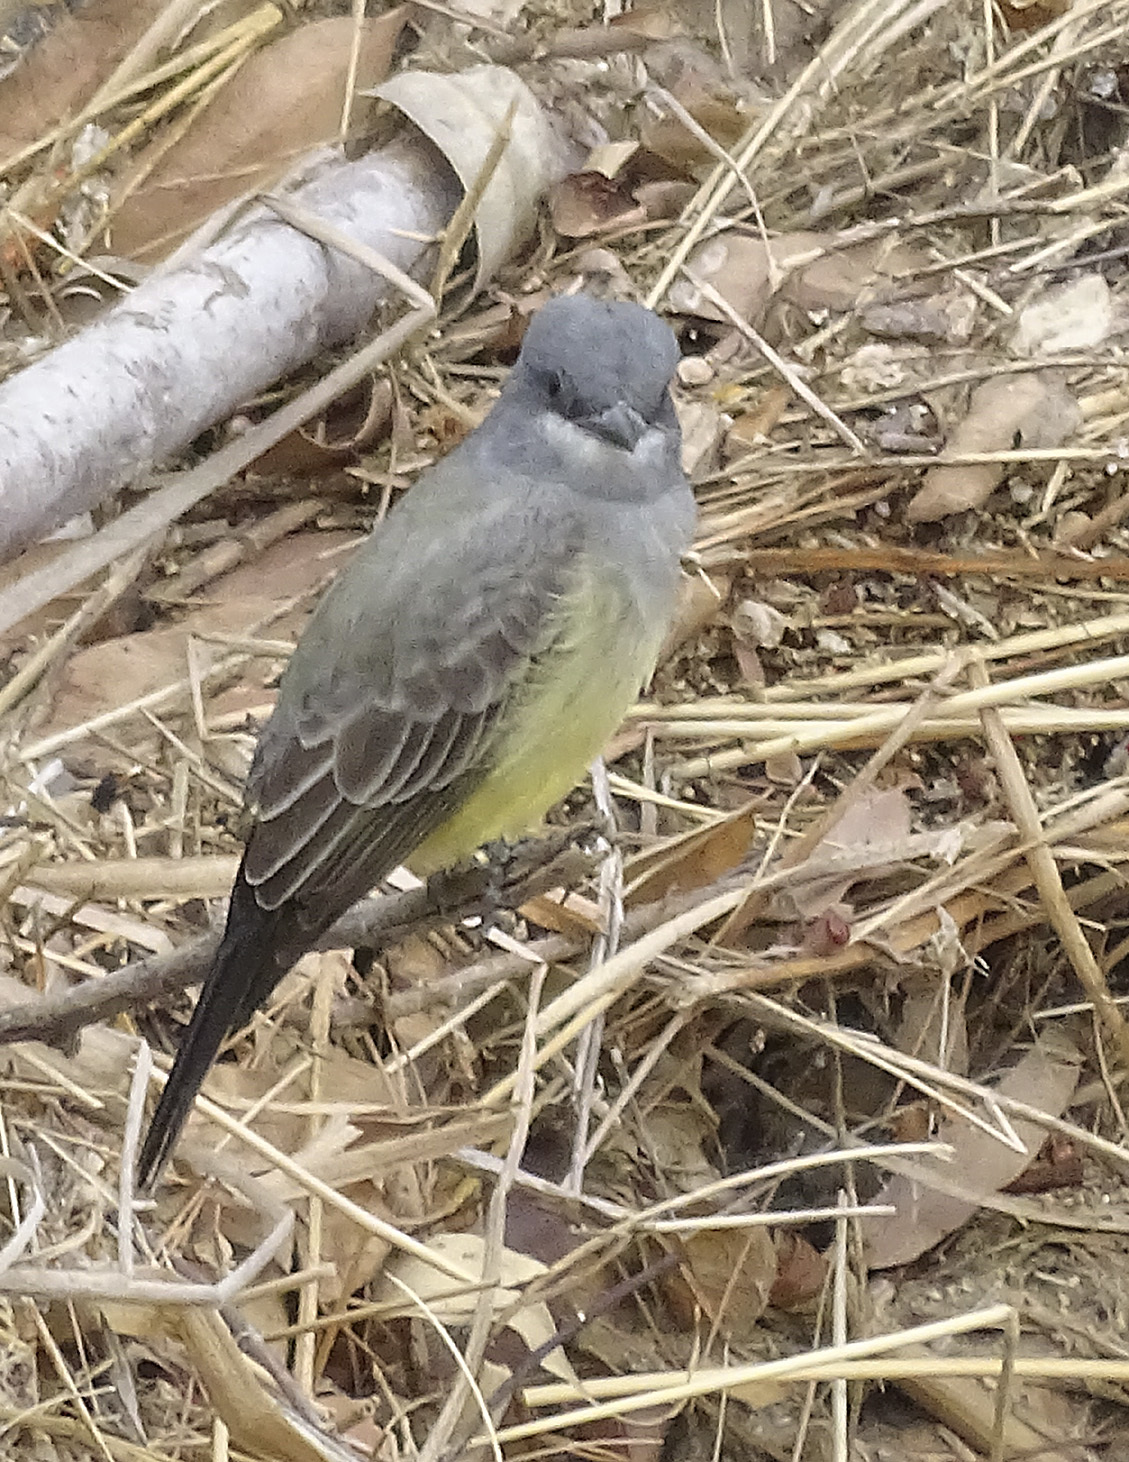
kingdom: Animalia
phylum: Chordata
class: Aves
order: Passeriformes
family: Tyrannidae
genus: Tyrannus
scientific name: Tyrannus vociferans
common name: Cassin's kingbird
